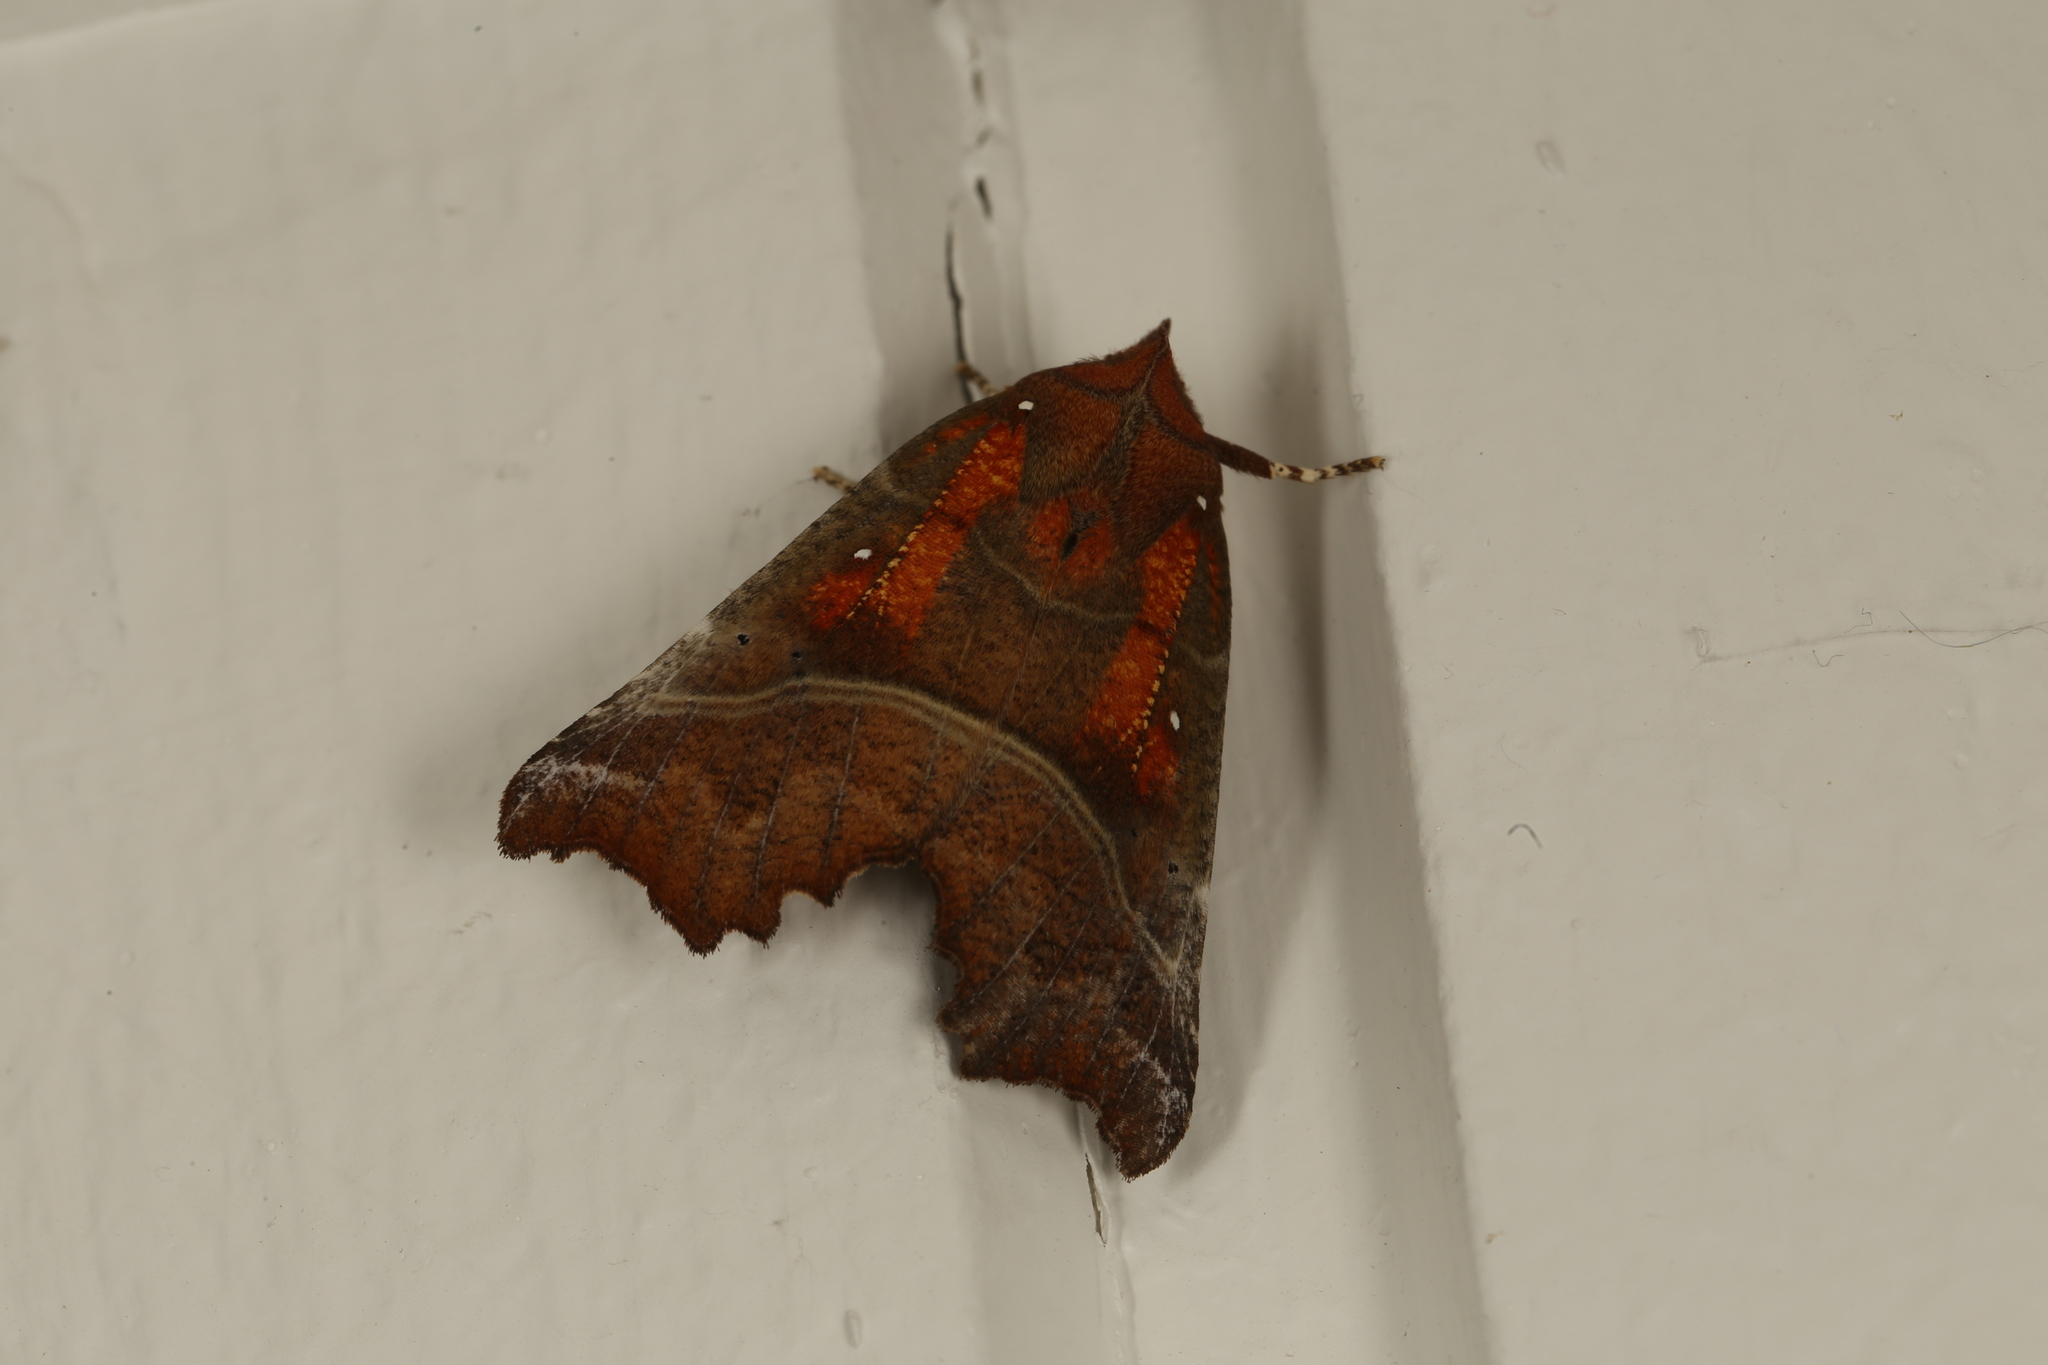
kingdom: Animalia
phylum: Arthropoda
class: Insecta
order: Lepidoptera
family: Erebidae
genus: Scoliopteryx
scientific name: Scoliopteryx libatrix
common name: Herald
